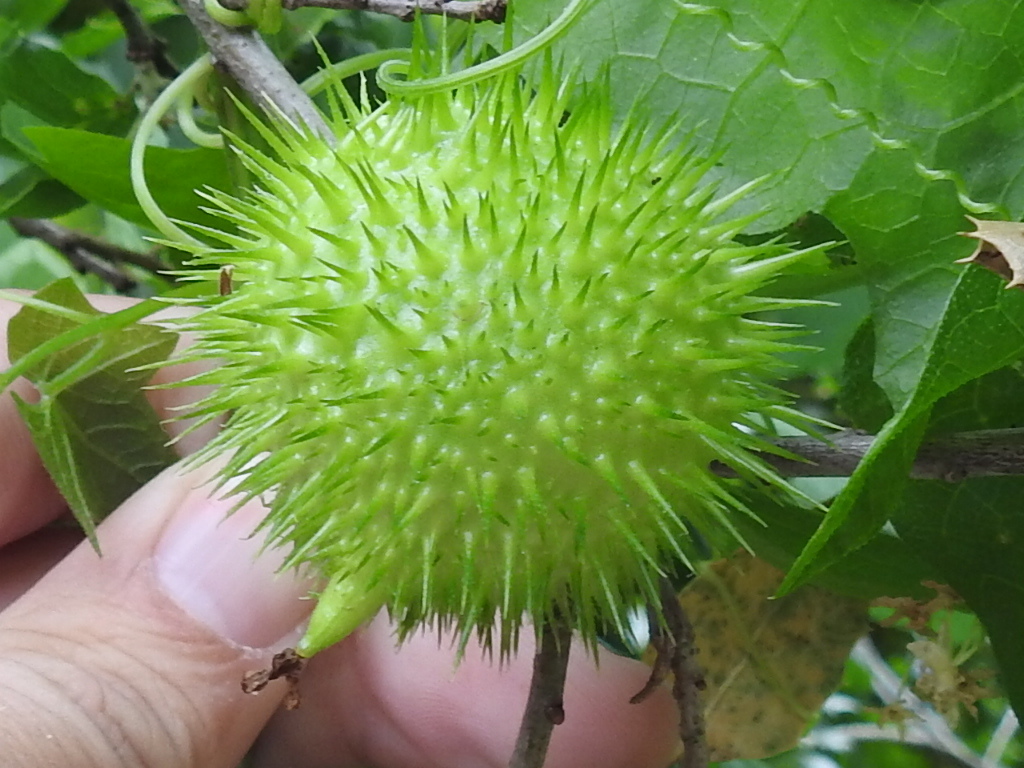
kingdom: Plantae
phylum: Tracheophyta
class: Magnoliopsida
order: Cucurbitales
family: Cucurbitaceae
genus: Marah
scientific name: Marah fabacea
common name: California manroot
